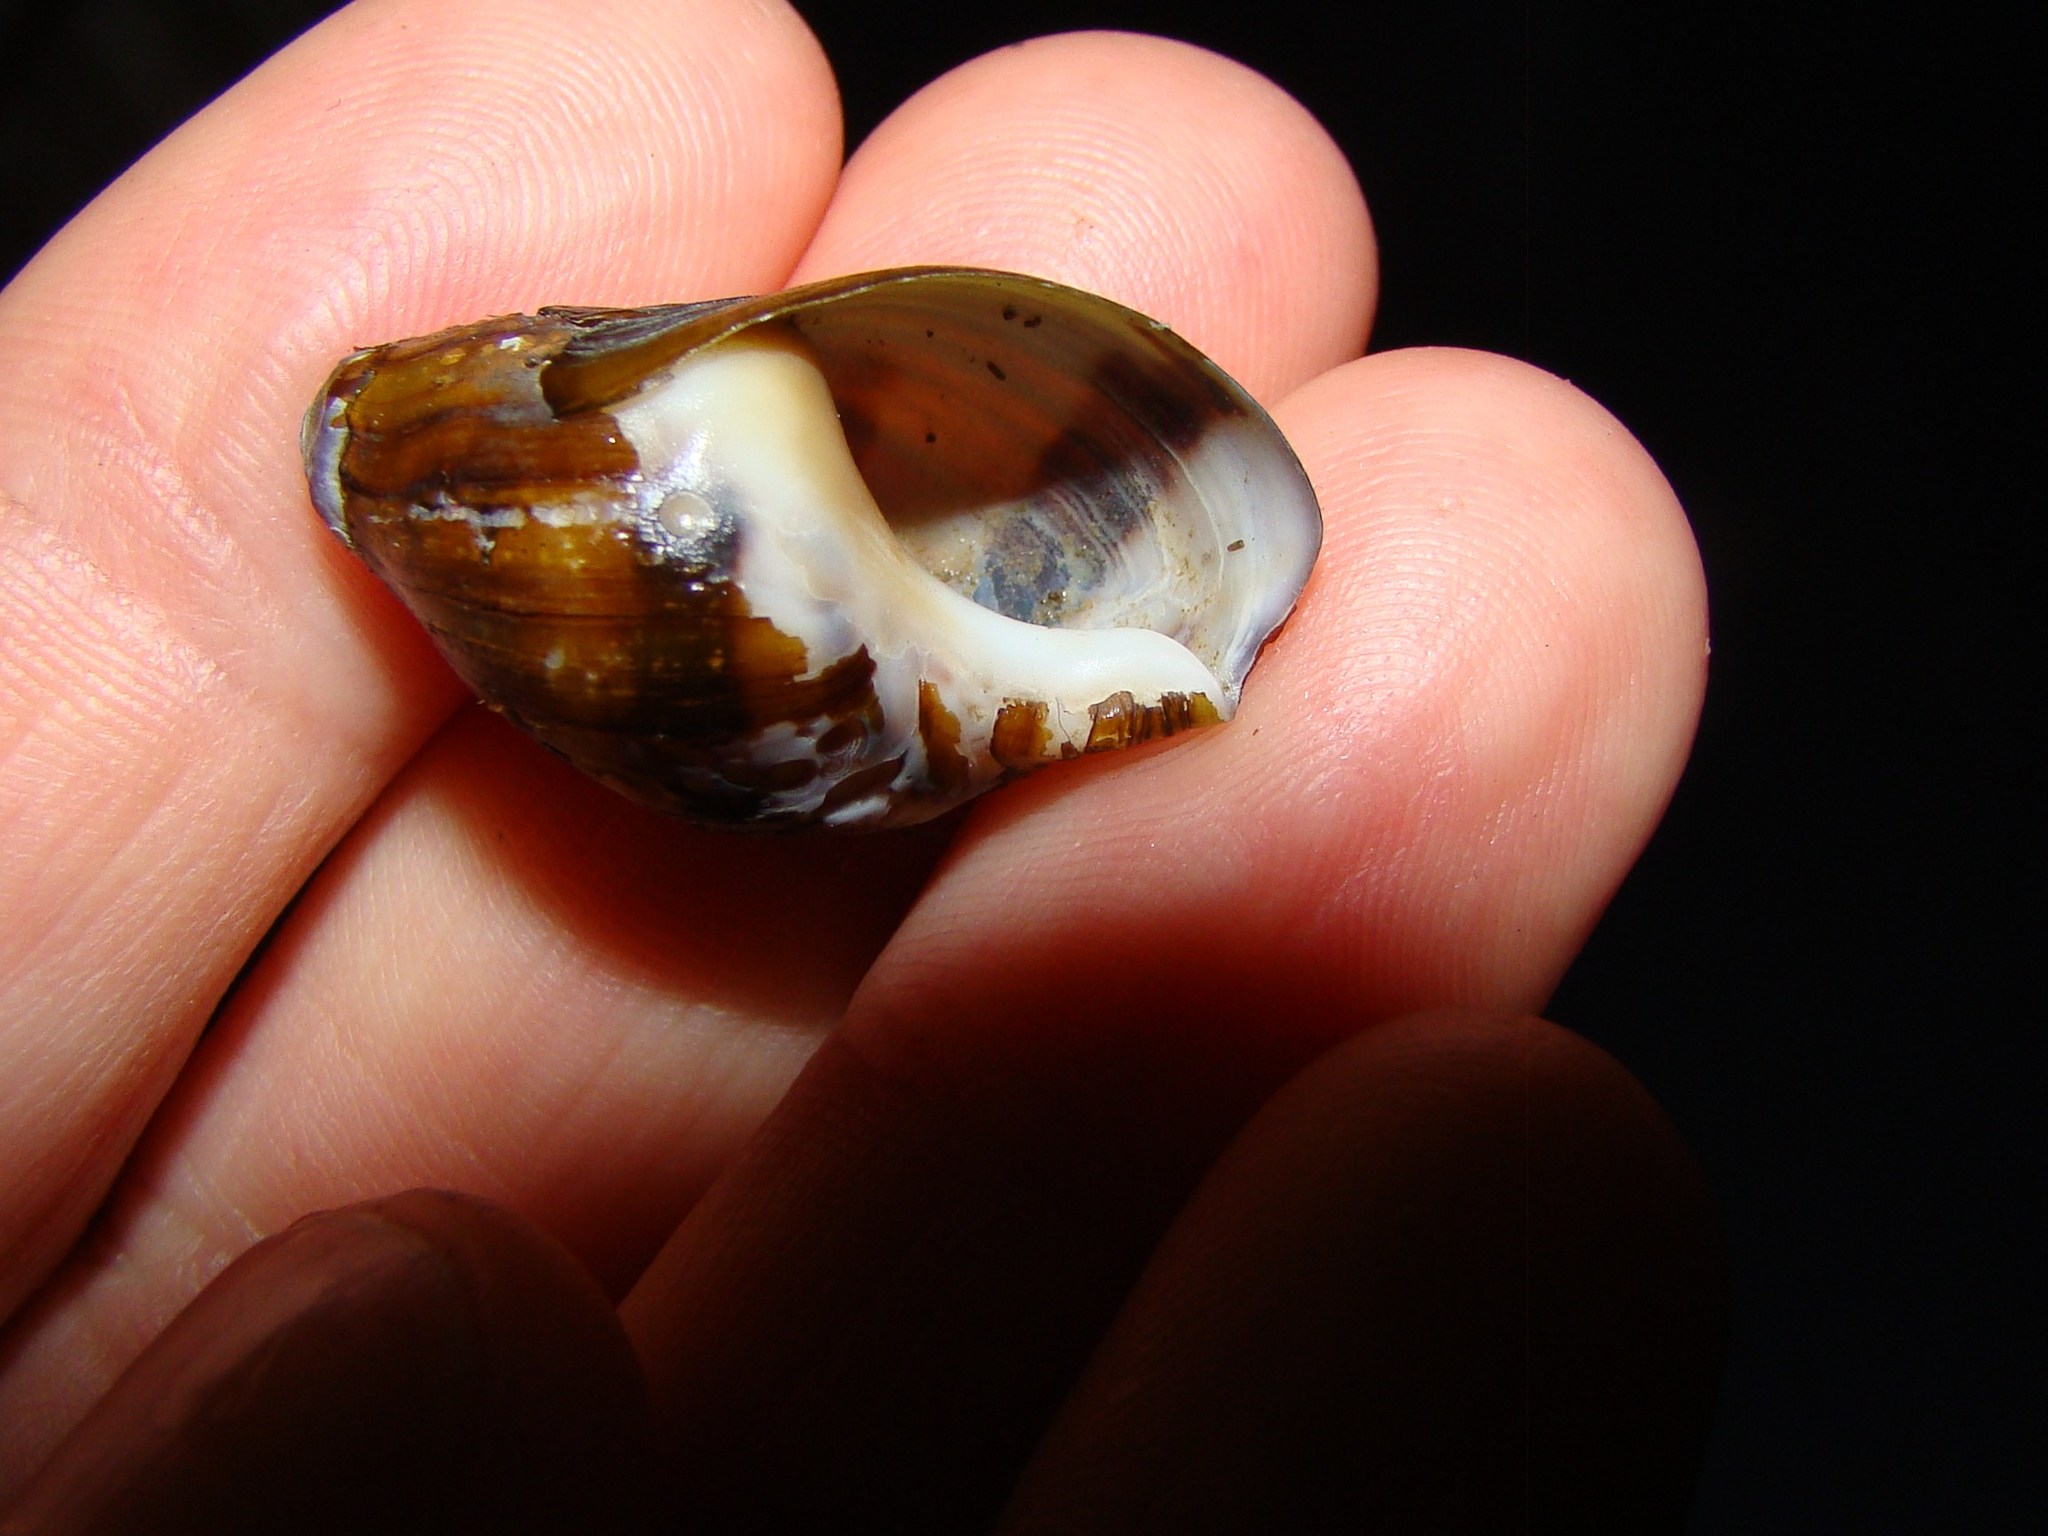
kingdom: Animalia
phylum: Mollusca
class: Gastropoda
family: Zemelanopsidae
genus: Zemelanopsis
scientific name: Zemelanopsis trifasciata
